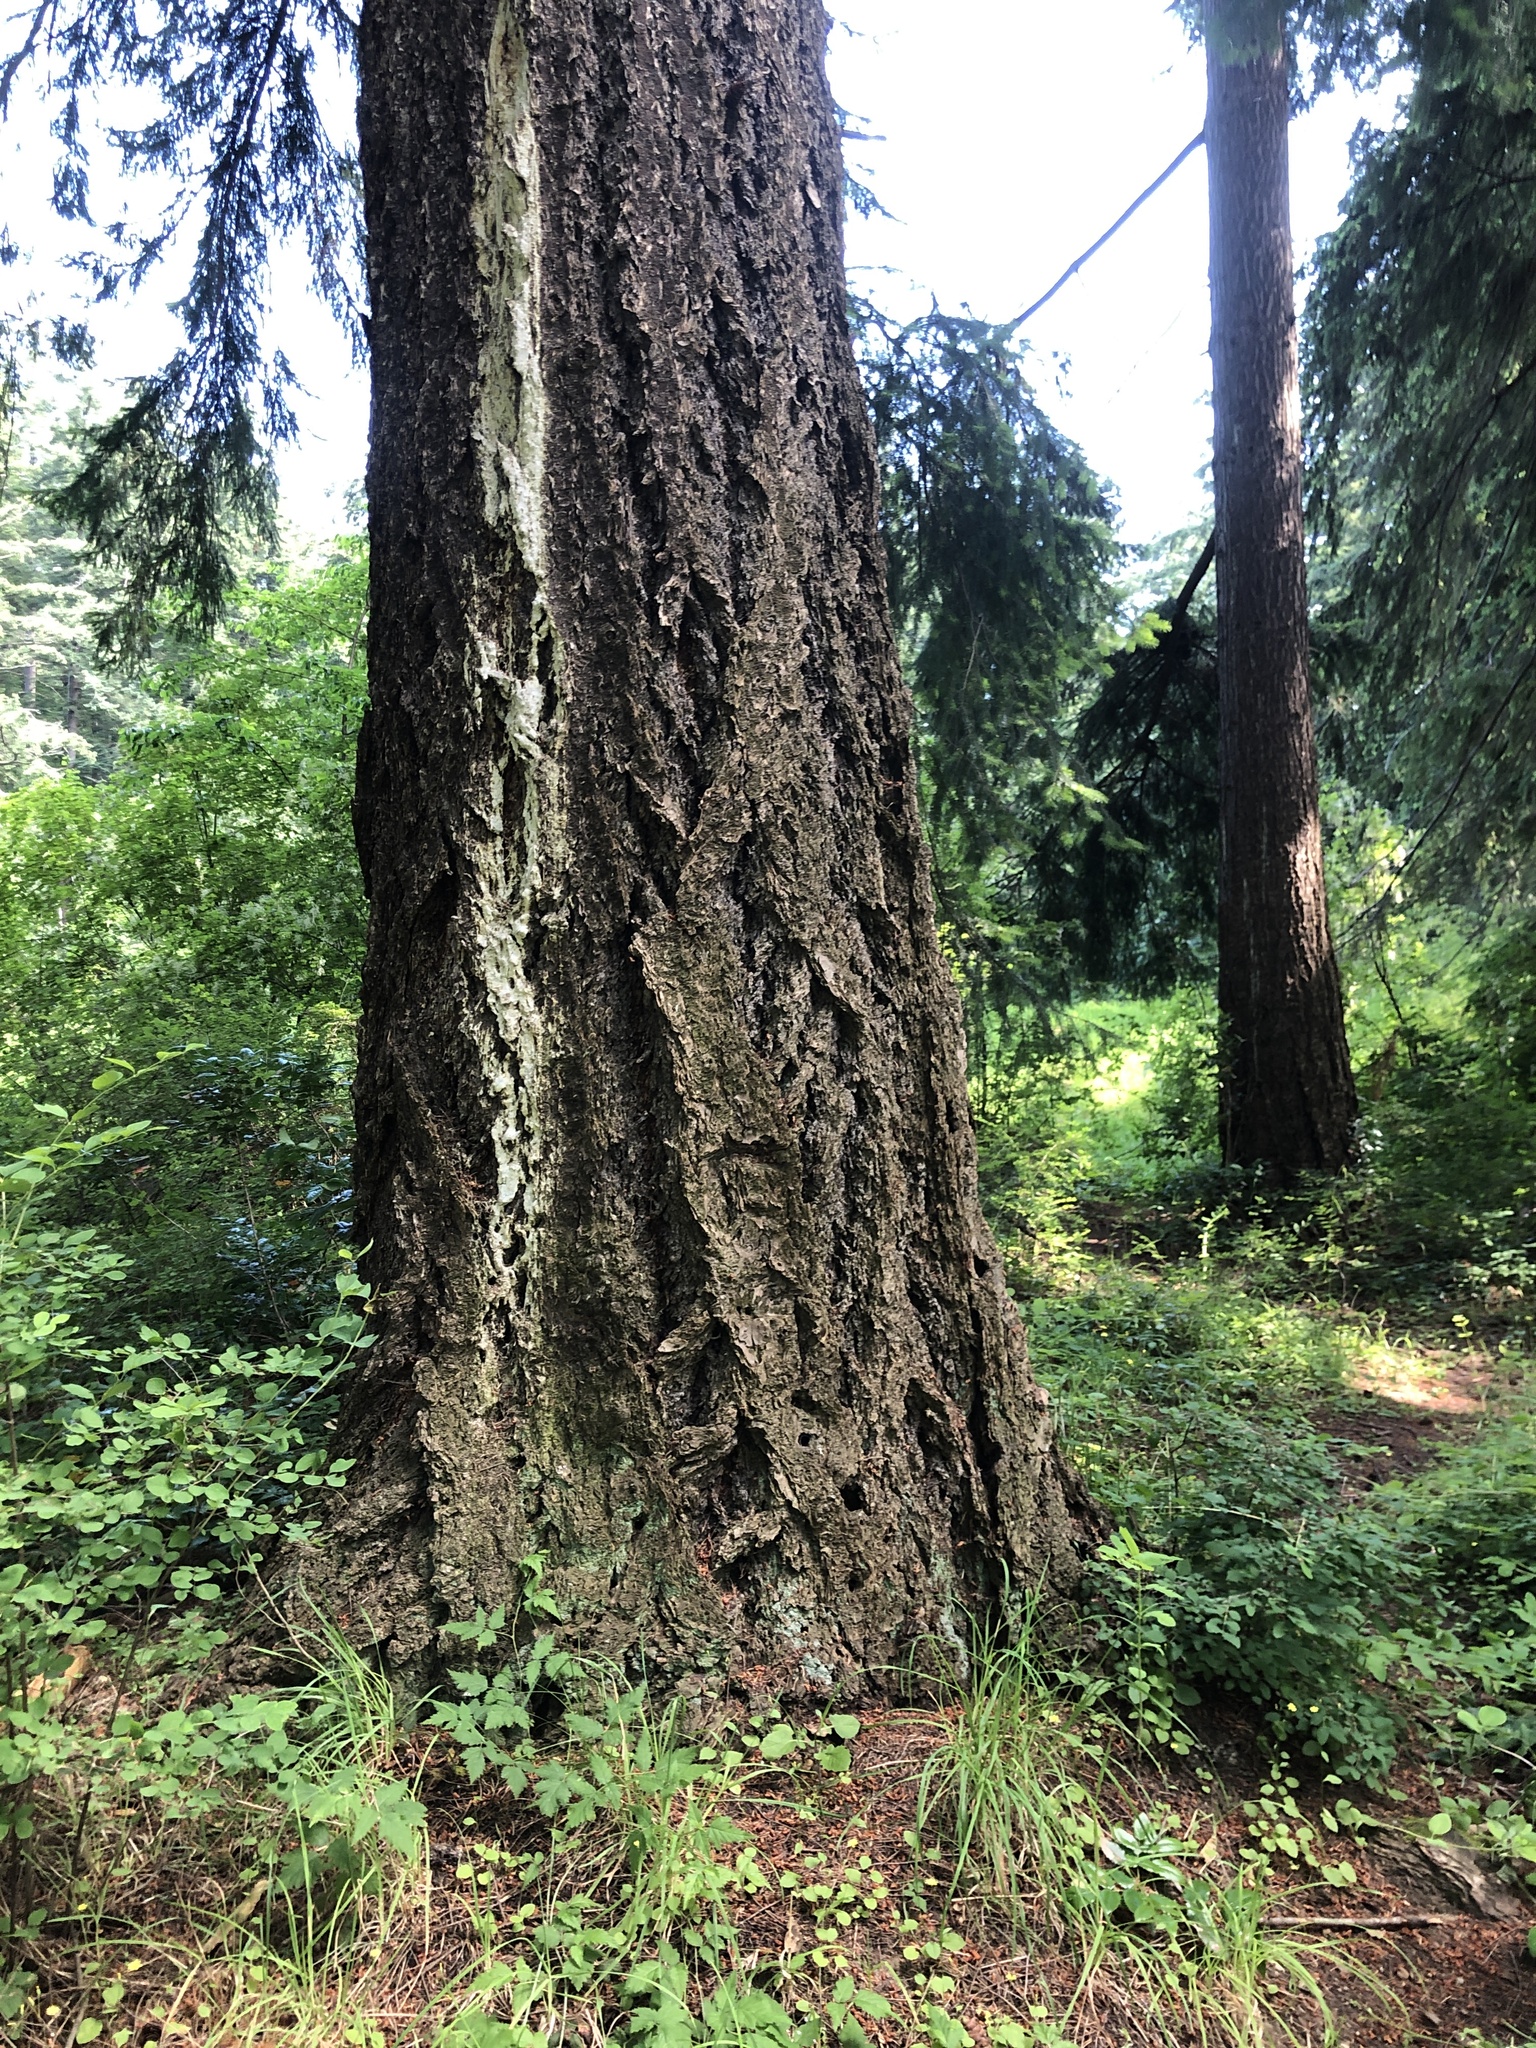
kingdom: Plantae
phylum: Tracheophyta
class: Pinopsida
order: Pinales
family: Pinaceae
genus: Pseudotsuga
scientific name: Pseudotsuga menziesii
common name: Douglas fir
